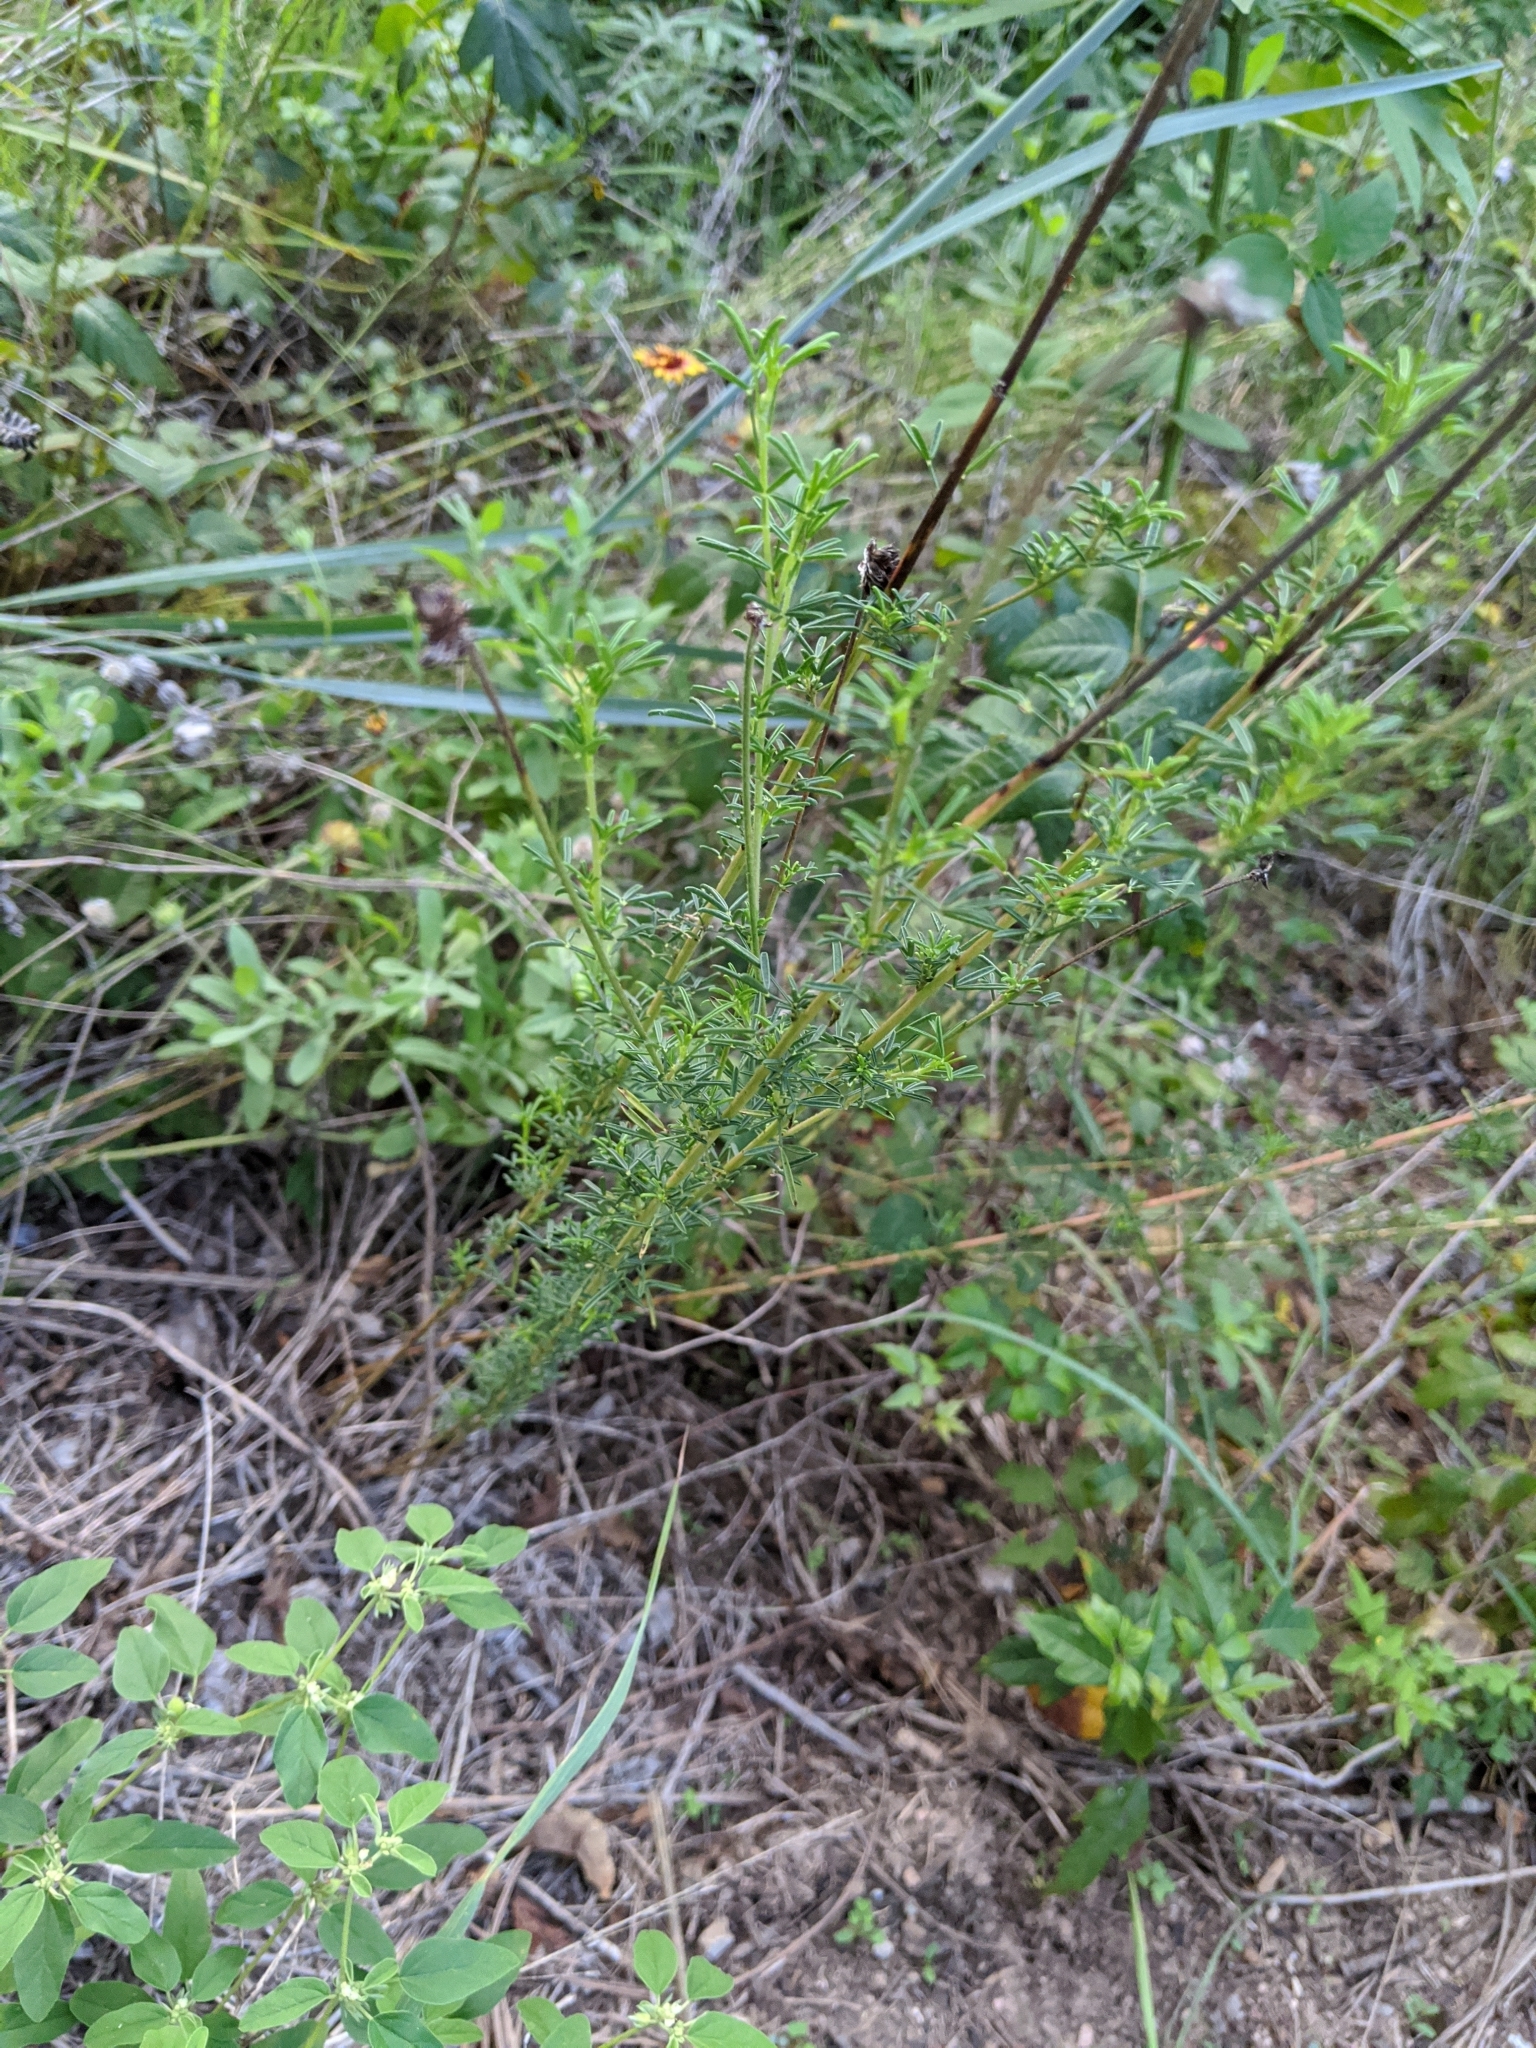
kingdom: Plantae
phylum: Tracheophyta
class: Magnoliopsida
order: Fabales
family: Fabaceae
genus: Dalea
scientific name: Dalea compacta
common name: Compact prairie-clover
